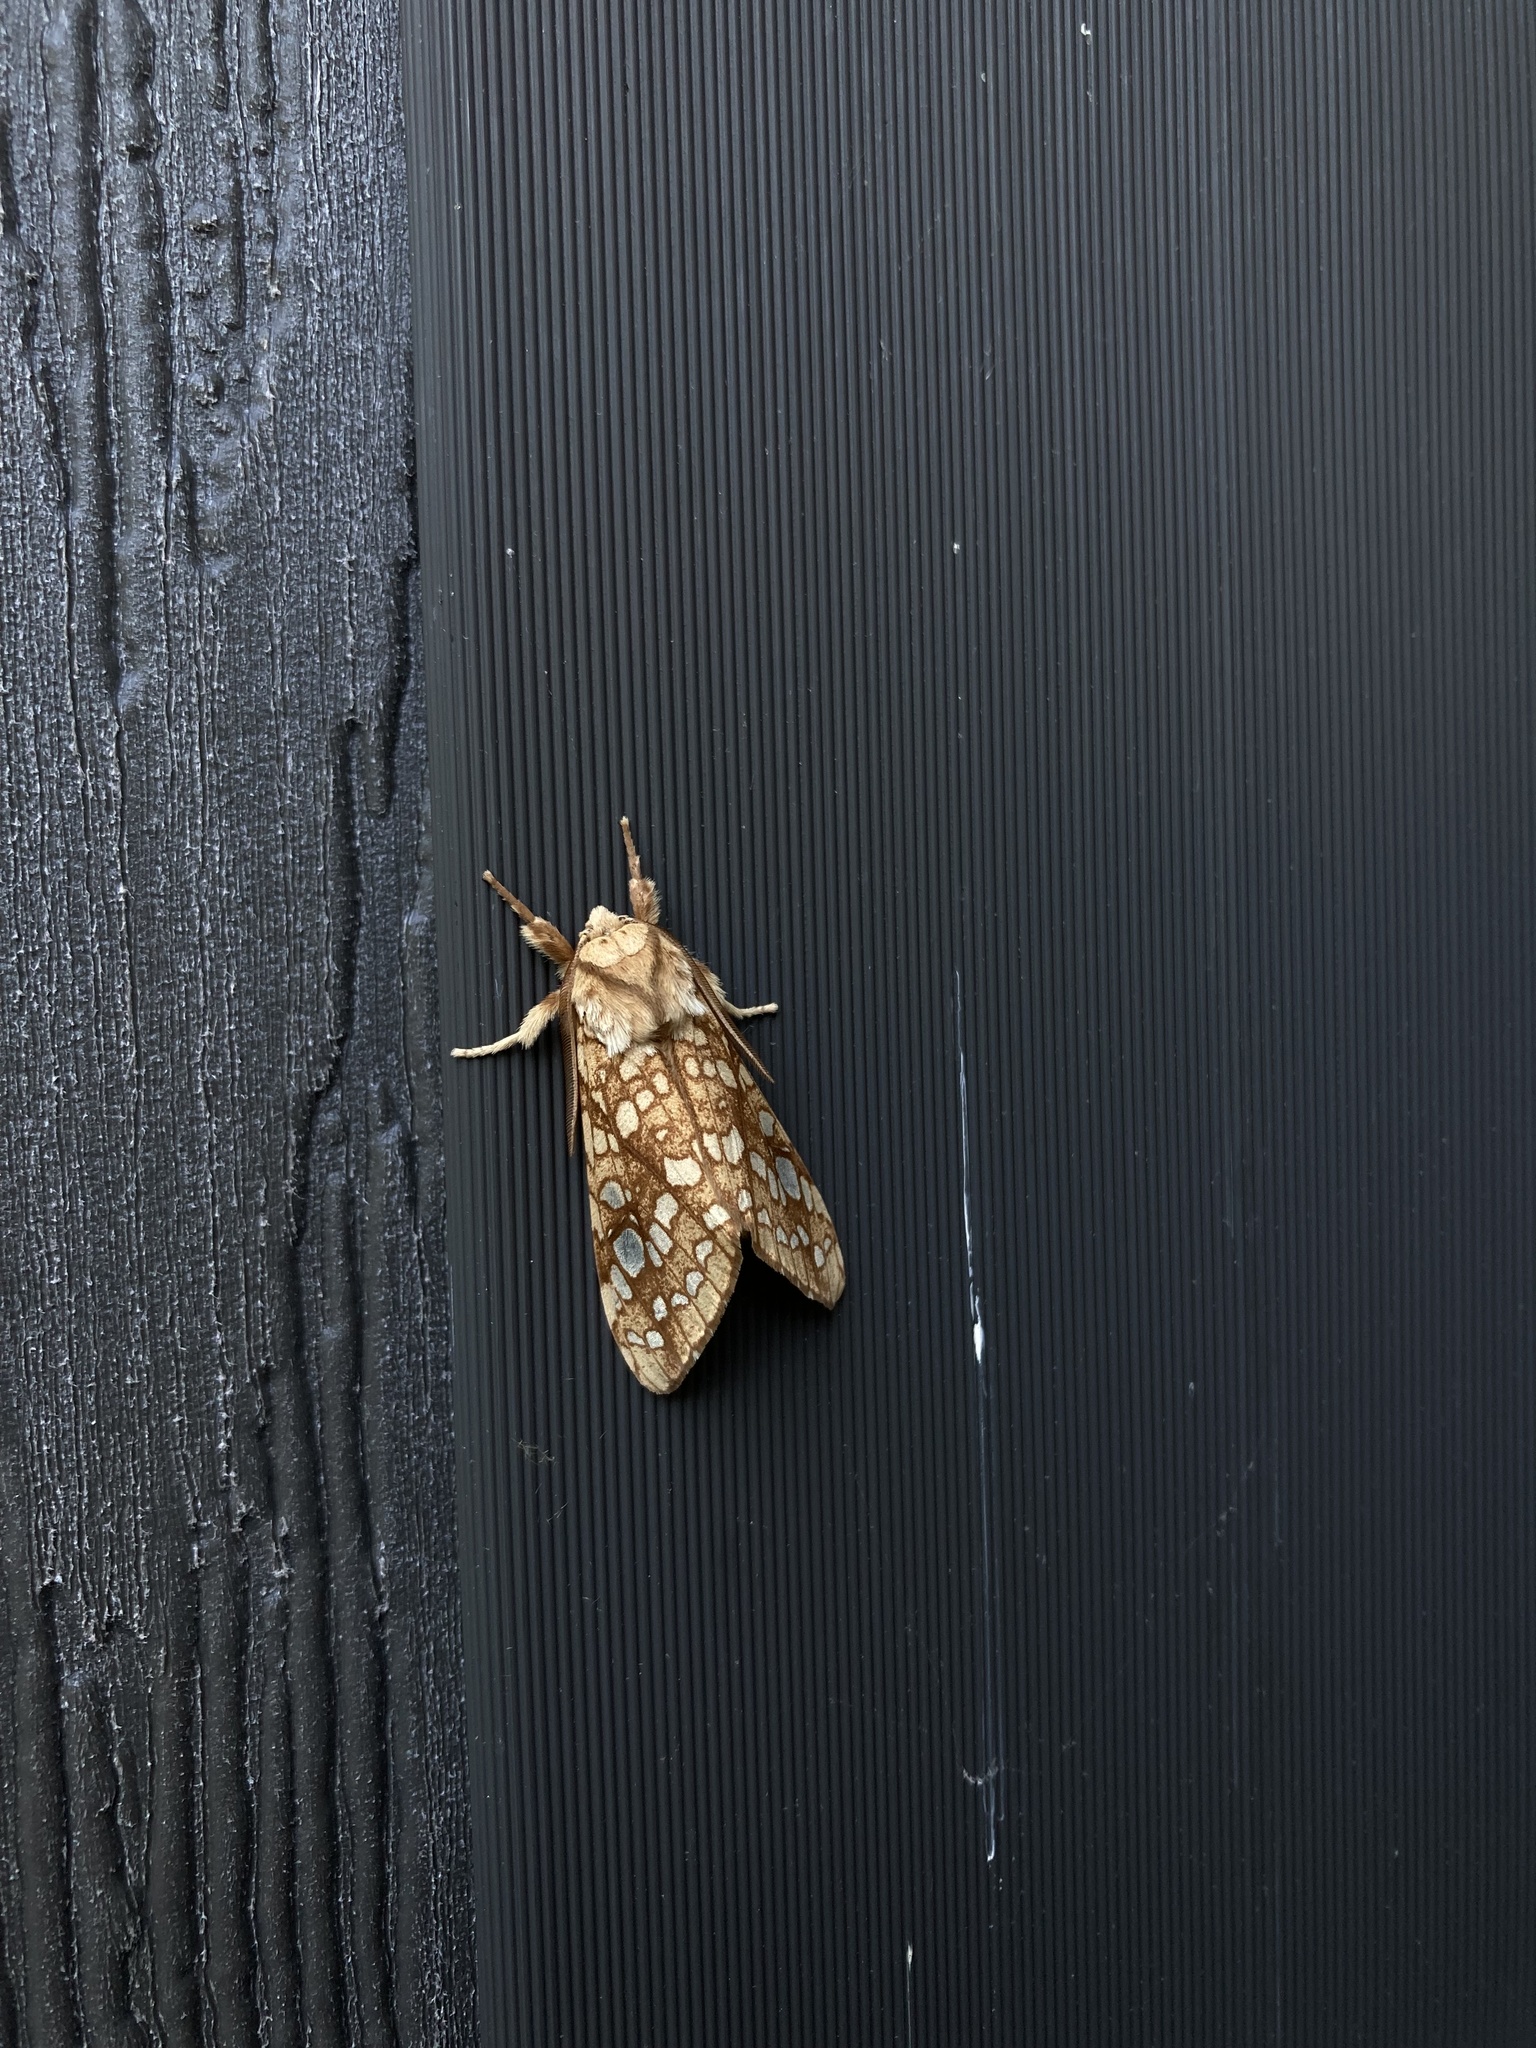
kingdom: Animalia
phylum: Arthropoda
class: Insecta
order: Lepidoptera
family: Erebidae
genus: Lophocampa
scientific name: Lophocampa caryae
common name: Hickory tussock moth
